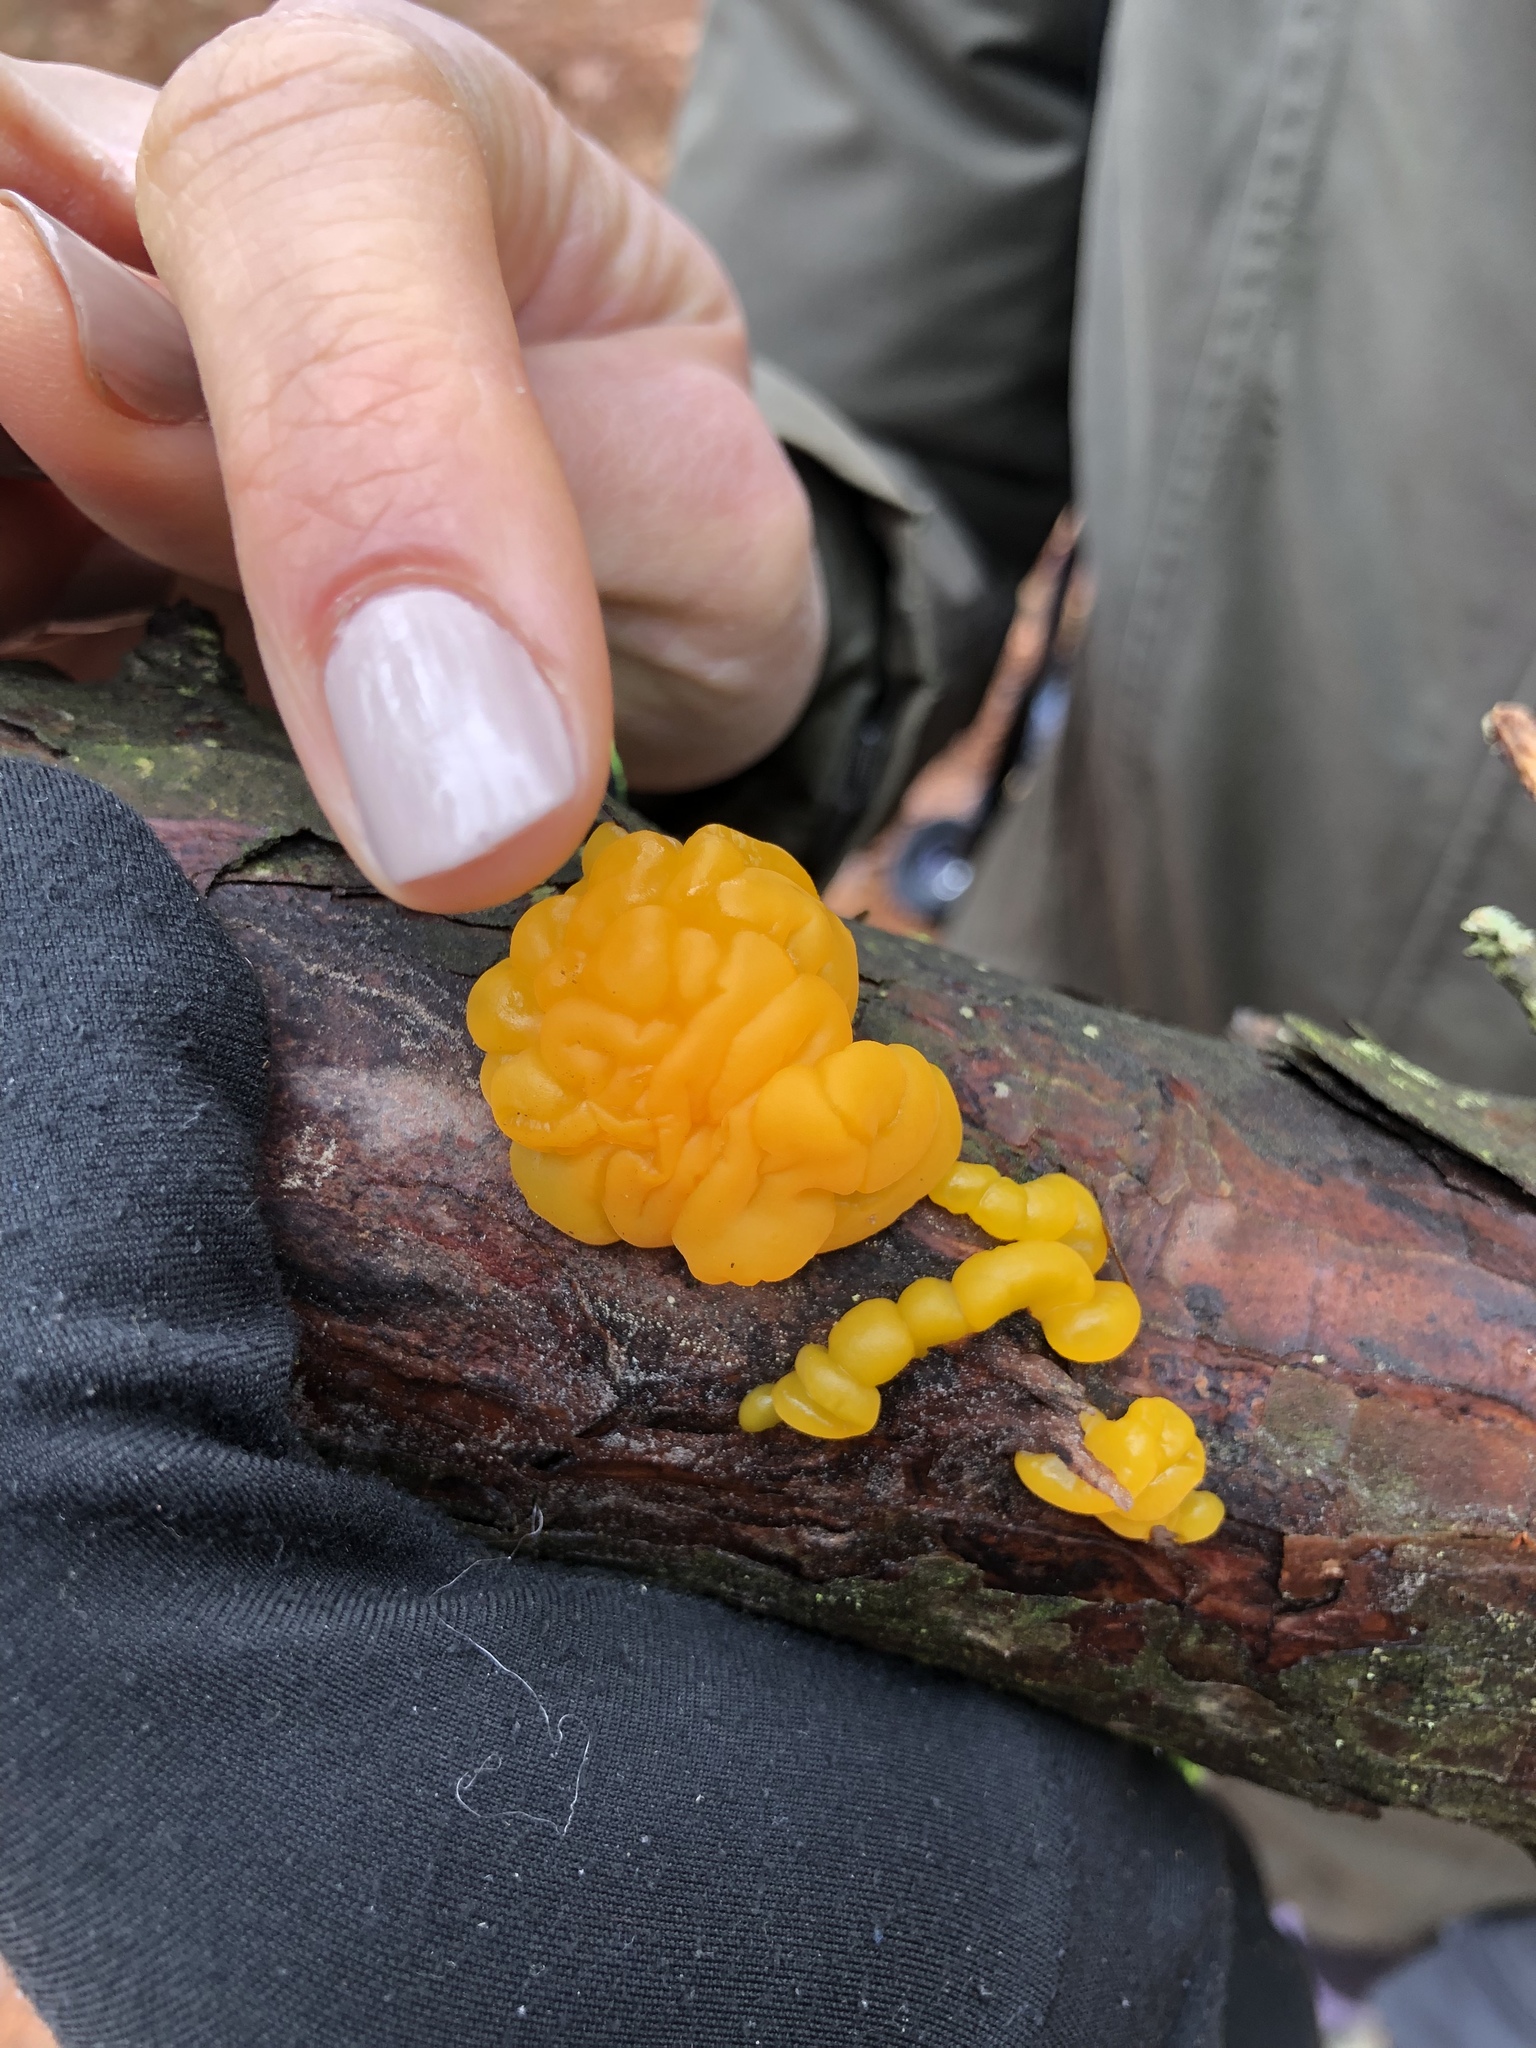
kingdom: Fungi
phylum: Basidiomycota
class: Dacrymycetes
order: Dacrymycetales
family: Dacrymycetaceae
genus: Dacrymyces
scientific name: Dacrymyces chrysospermus
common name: Orange jelly spot
